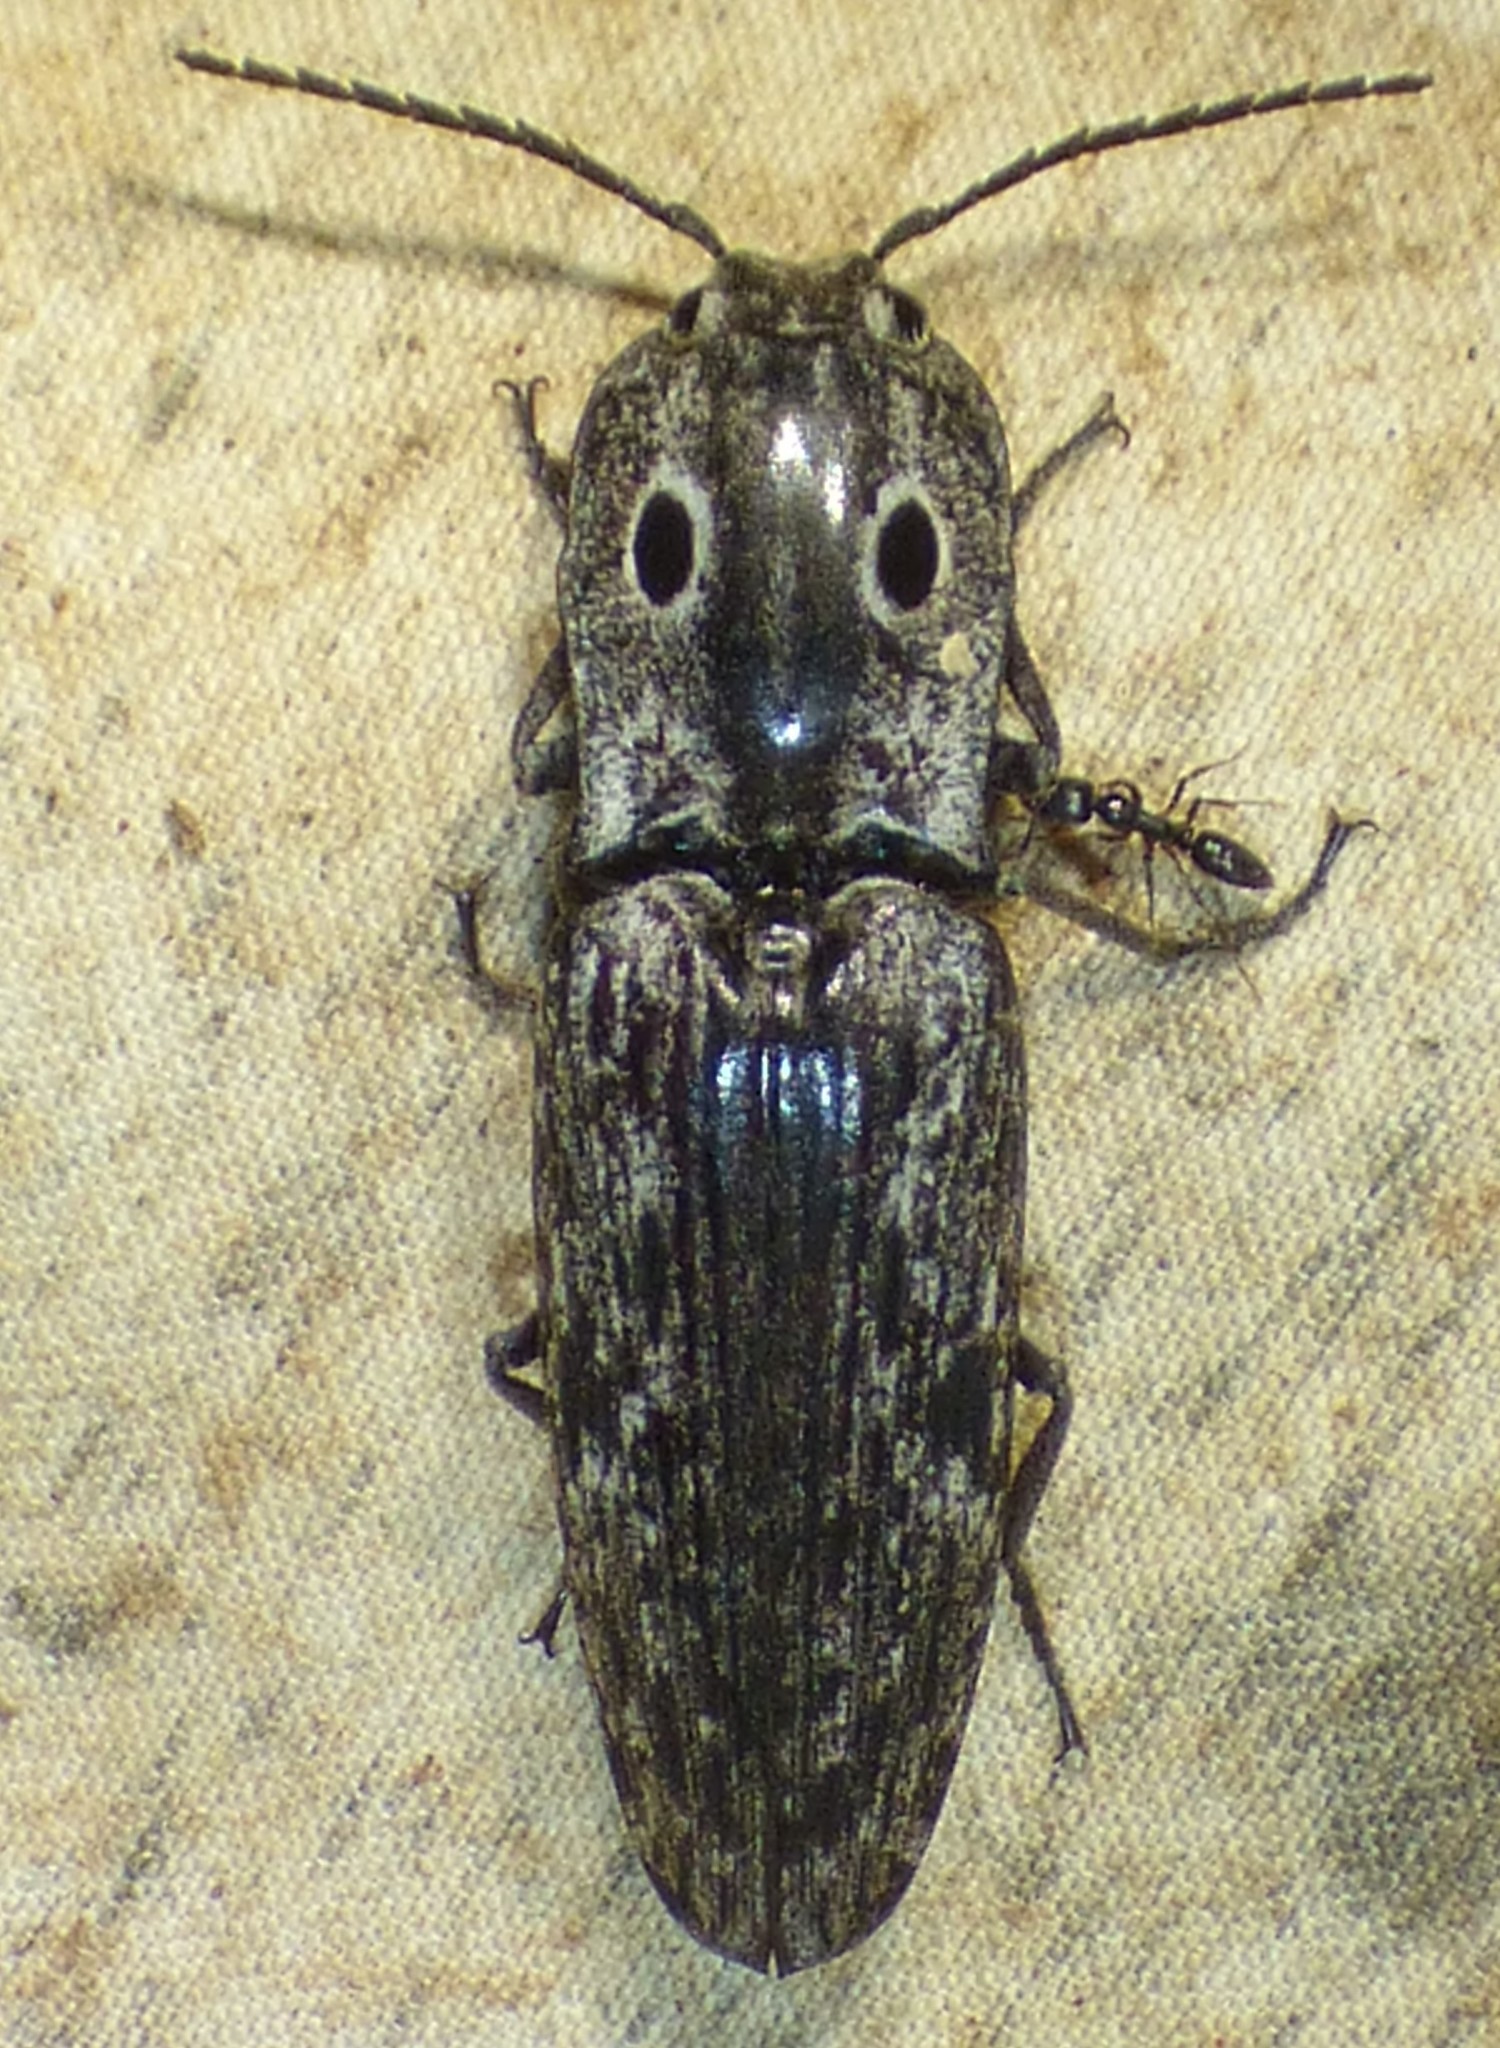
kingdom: Animalia
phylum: Arthropoda
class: Insecta
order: Coleoptera
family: Elateridae
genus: Alaus
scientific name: Alaus myops
